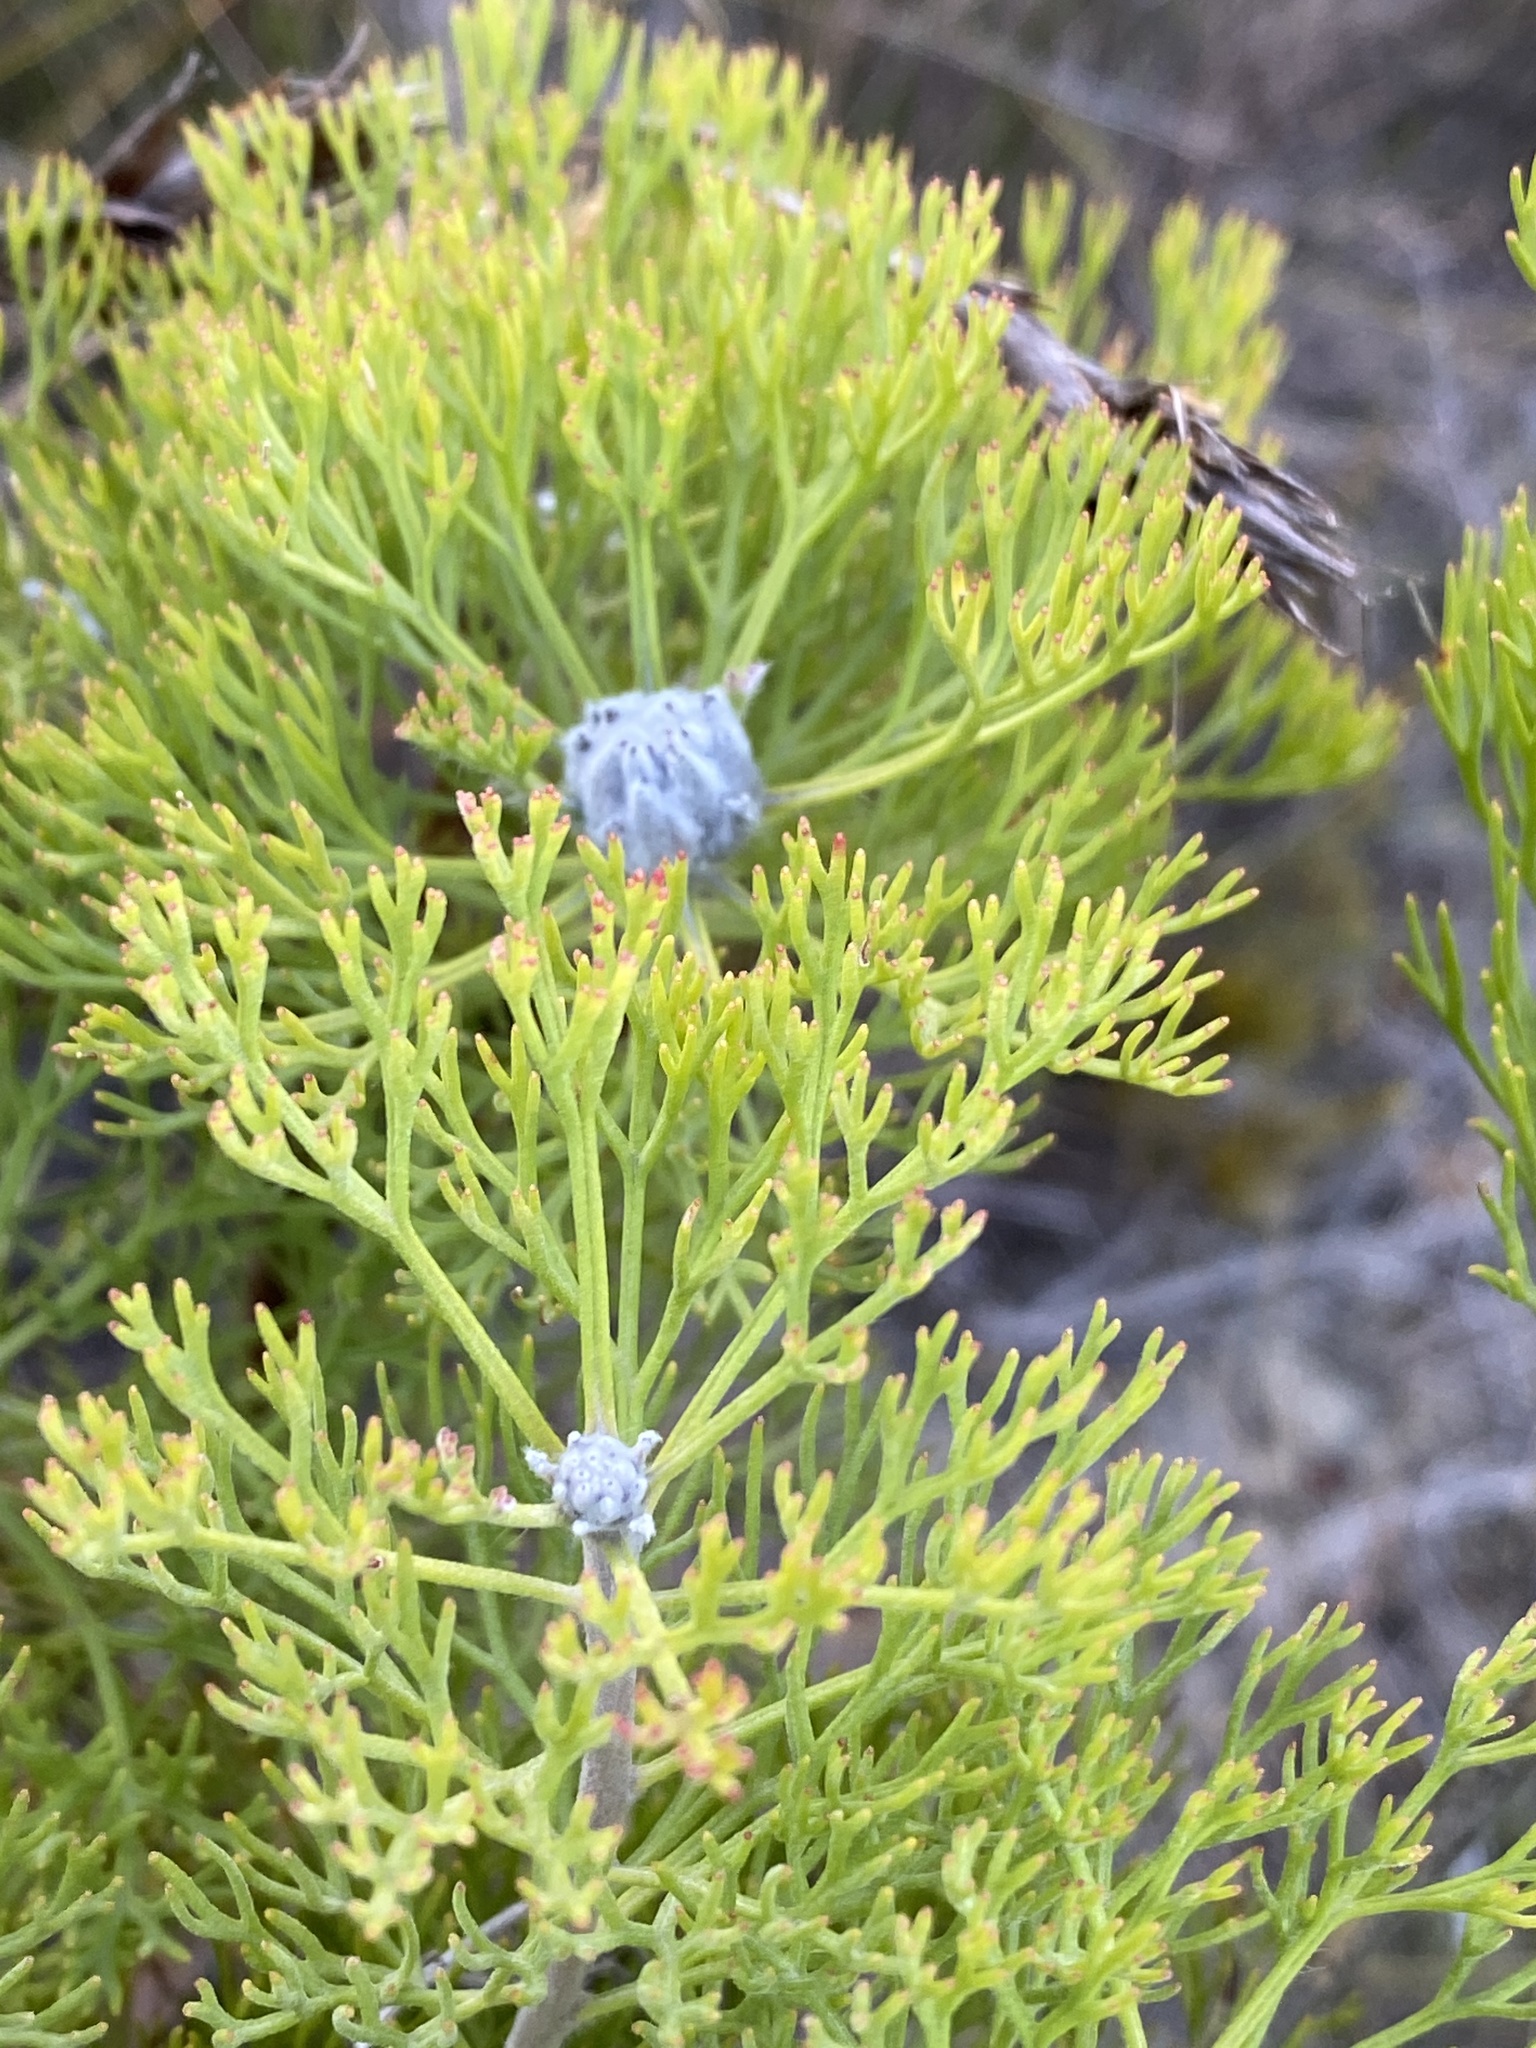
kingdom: Plantae
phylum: Tracheophyta
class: Magnoliopsida
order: Proteales
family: Proteaceae
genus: Paranomus
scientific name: Paranomus bolusii
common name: Overberg sceptre
